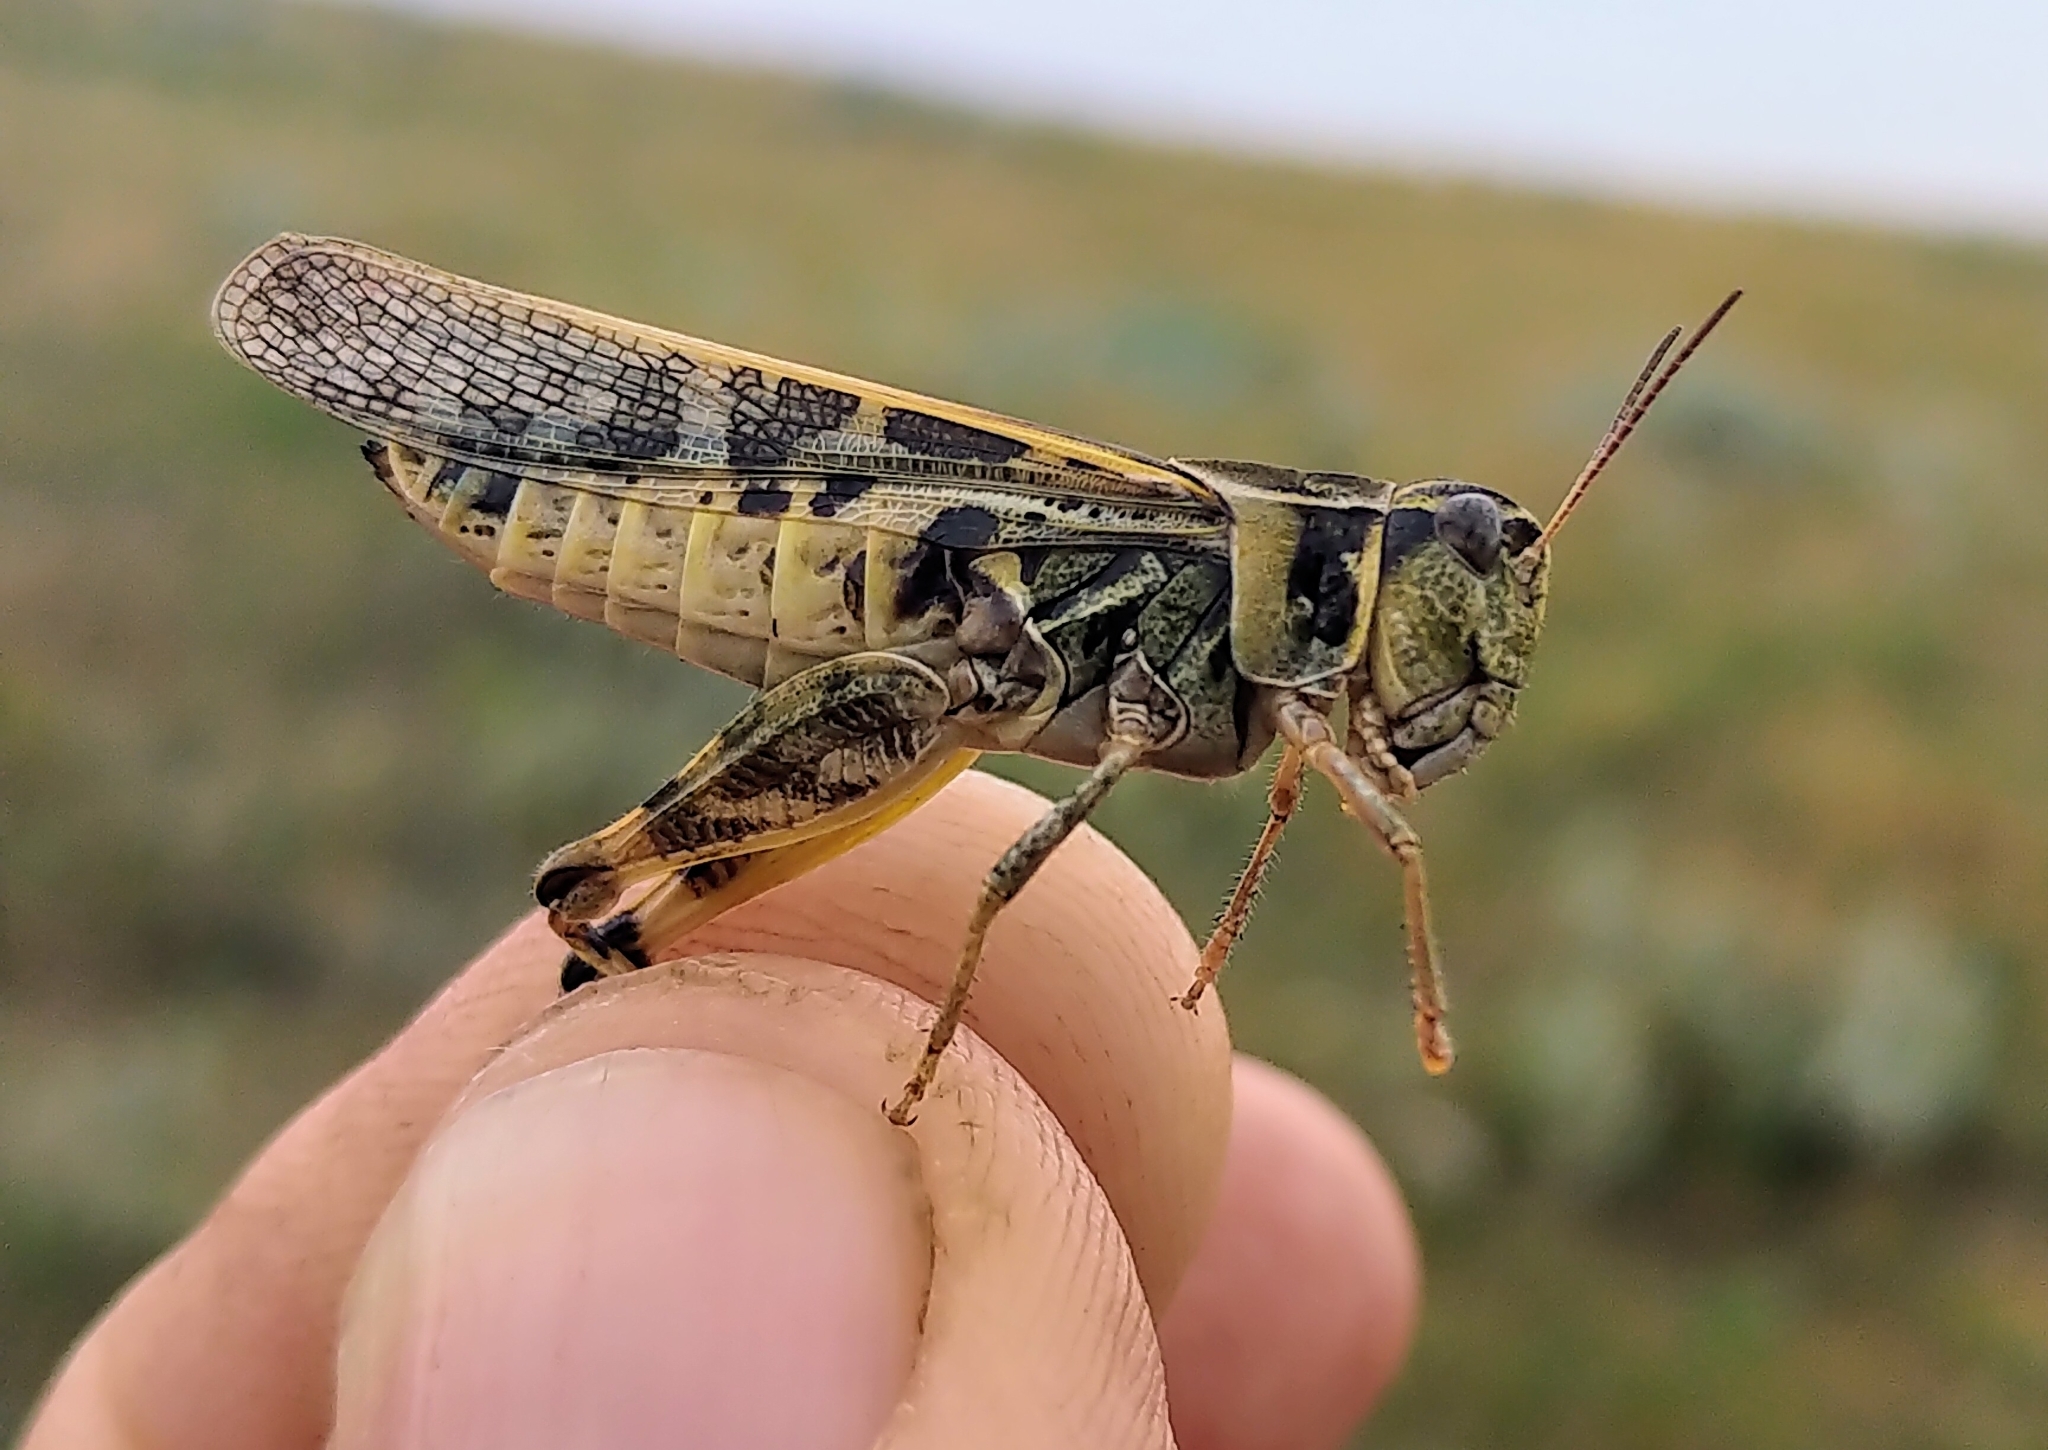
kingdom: Animalia
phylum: Arthropoda
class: Insecta
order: Orthoptera
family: Acrididae
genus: Camnula
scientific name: Camnula pellucida
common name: Clear-winged grasshopper
